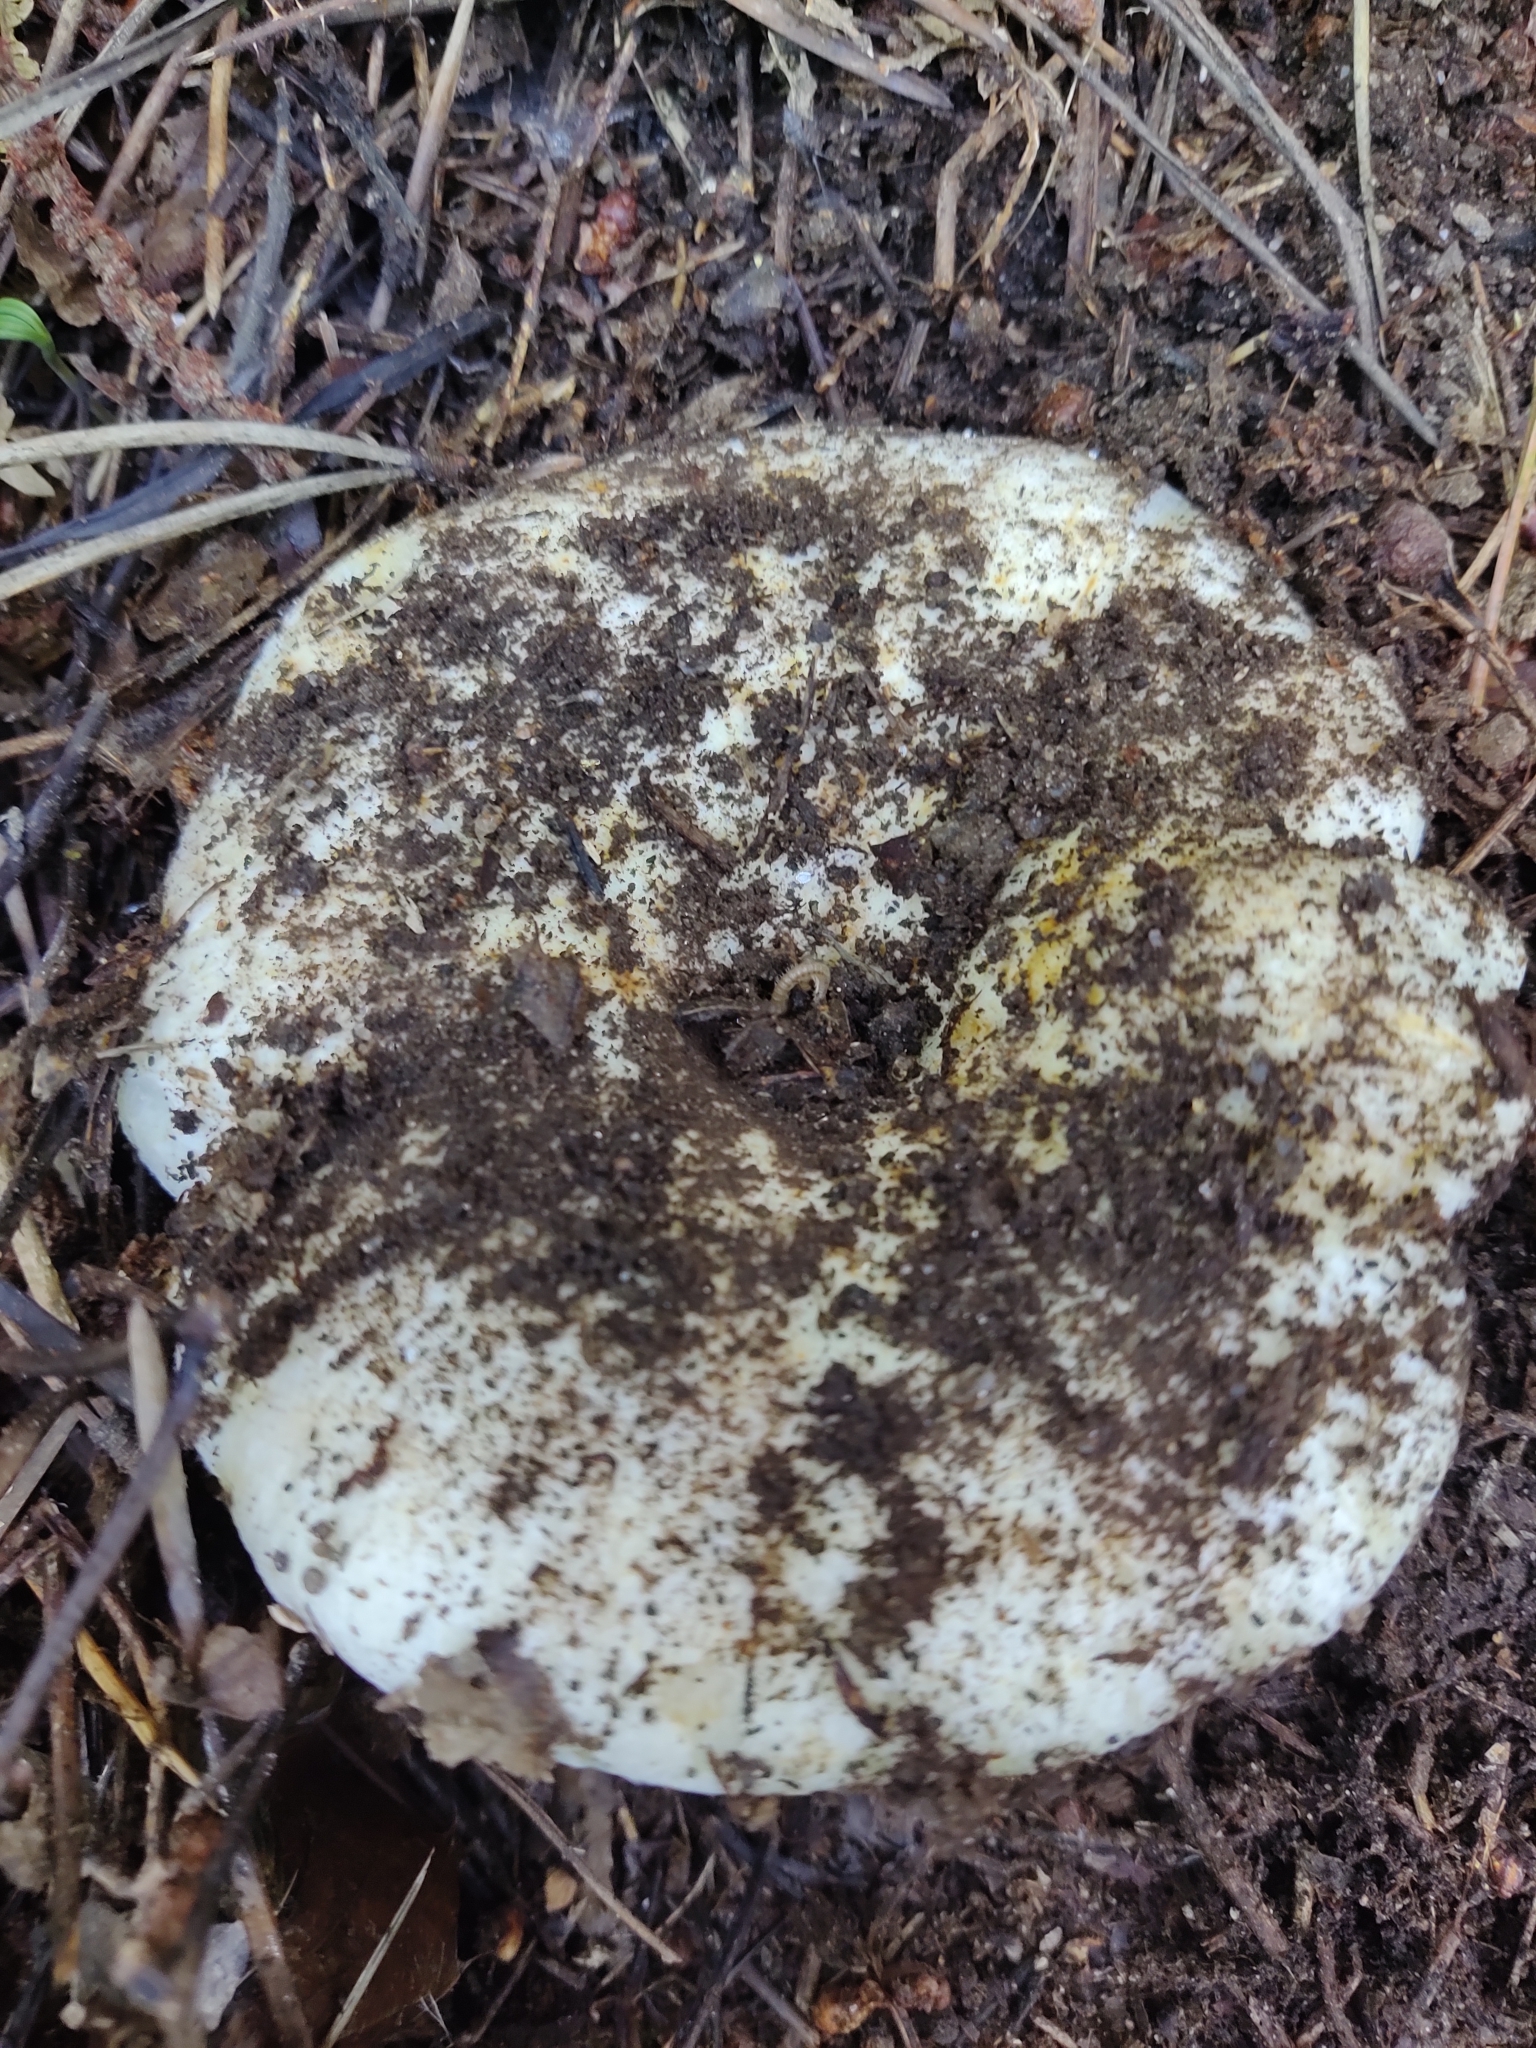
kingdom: Fungi
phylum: Basidiomycota
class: Agaricomycetes
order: Russulales
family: Russulaceae
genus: Russula
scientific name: Russula delica
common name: Milk white brittlegill
